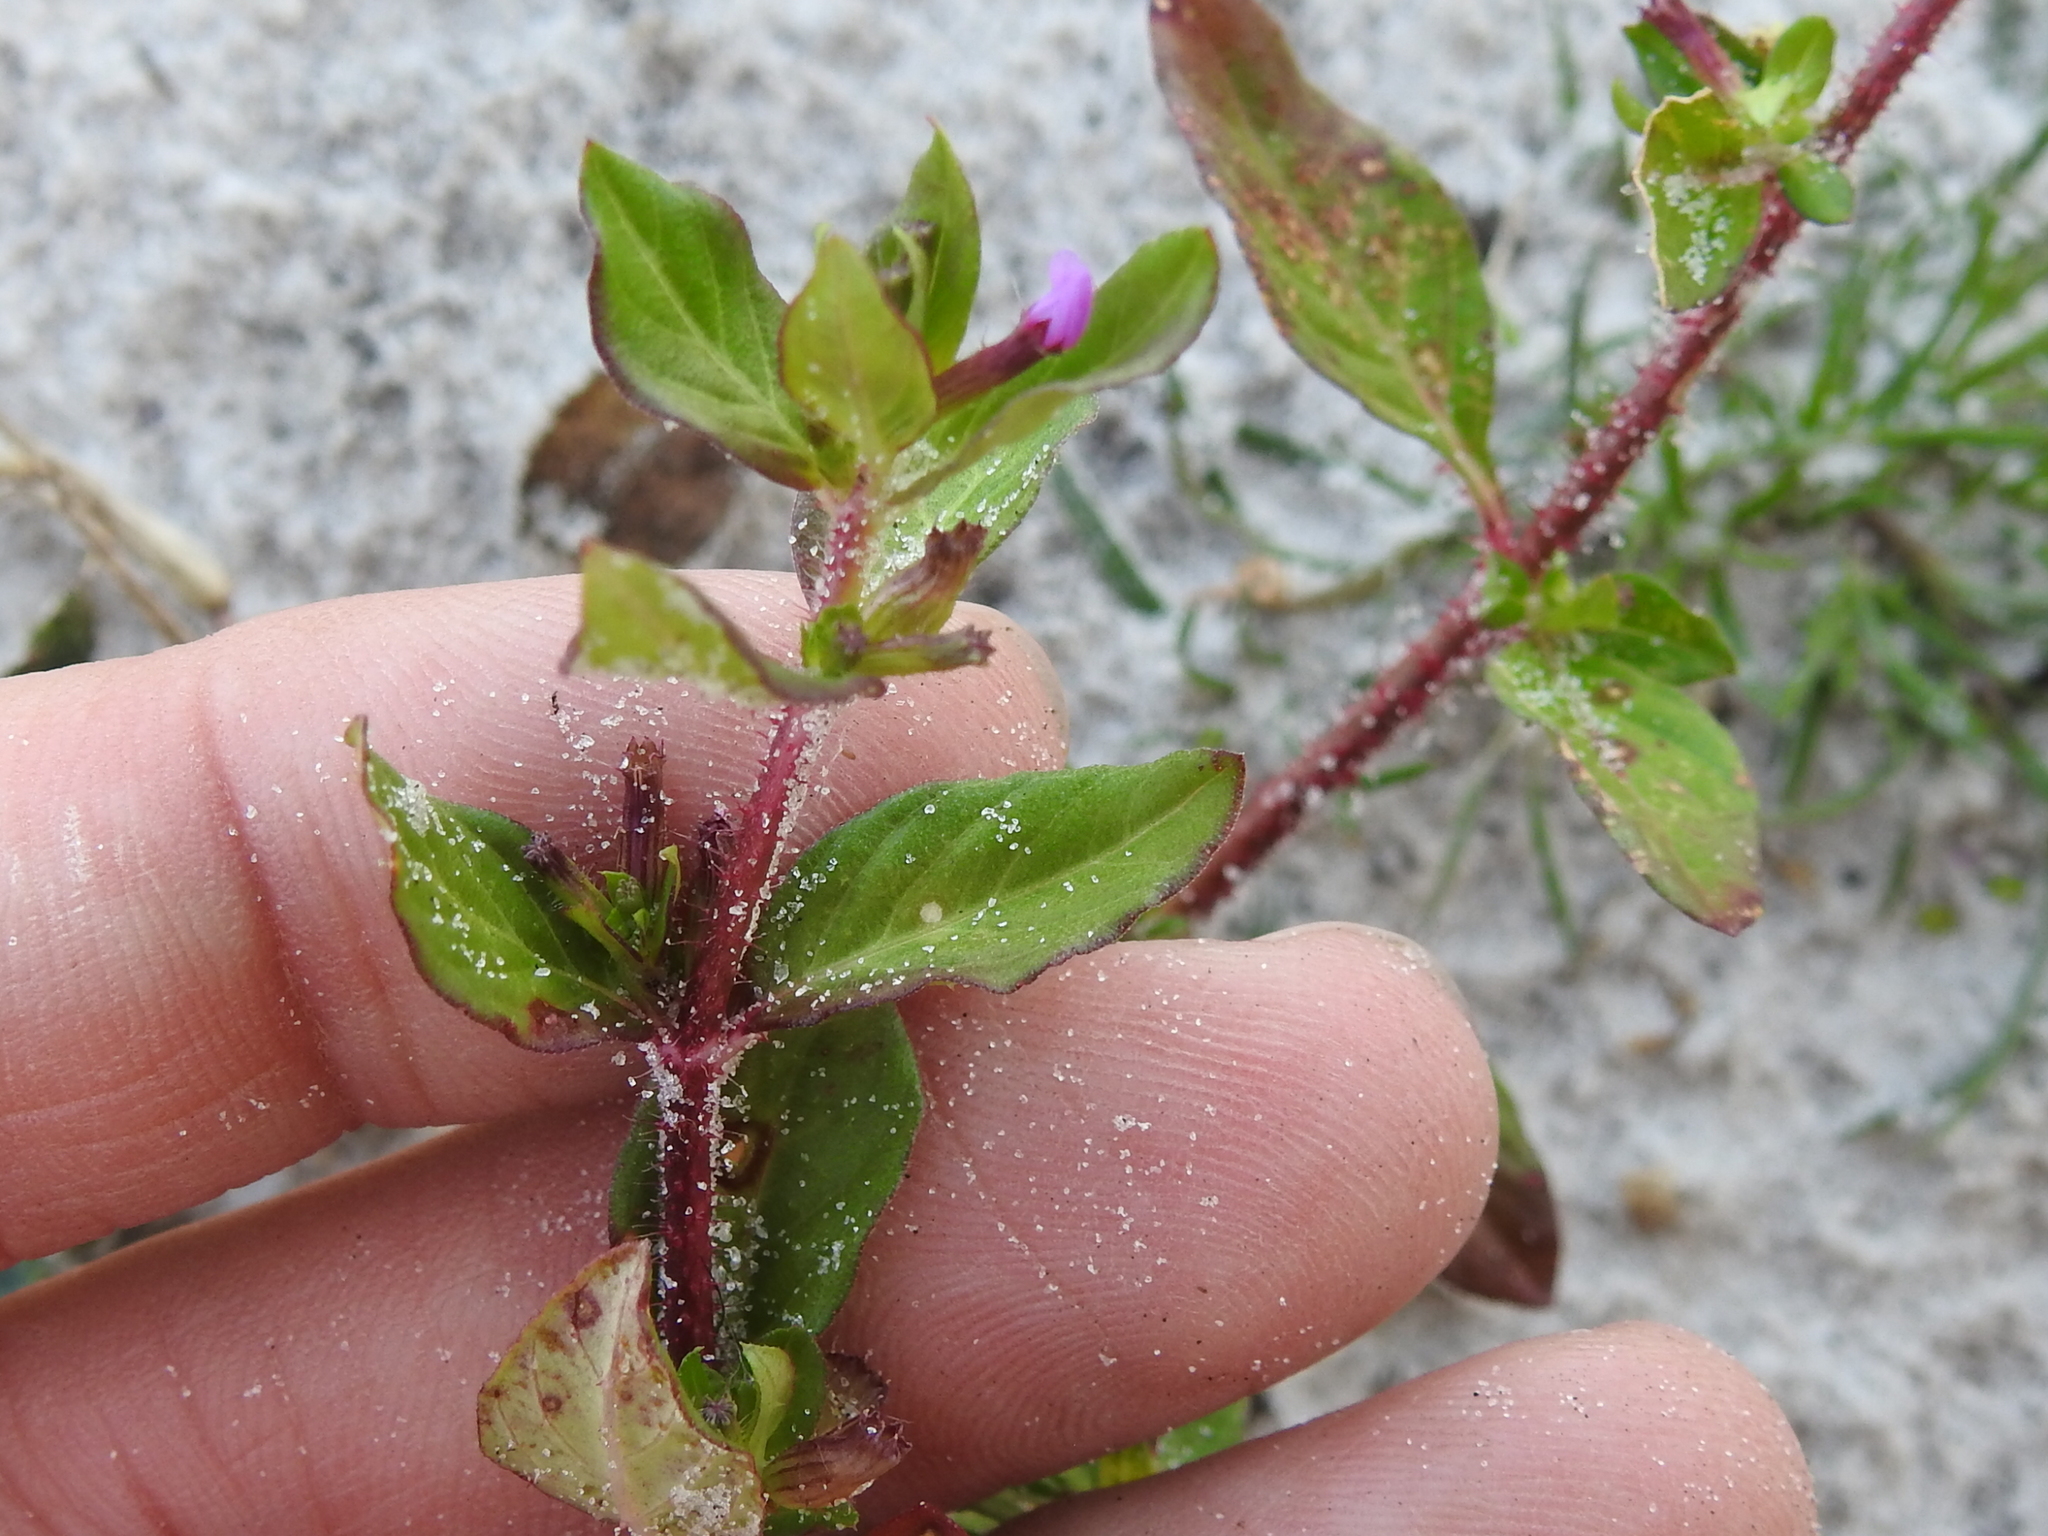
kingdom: Plantae
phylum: Tracheophyta
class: Magnoliopsida
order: Myrtales
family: Lythraceae
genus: Cuphea
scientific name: Cuphea carthagenensis
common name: Colombian waxweed
